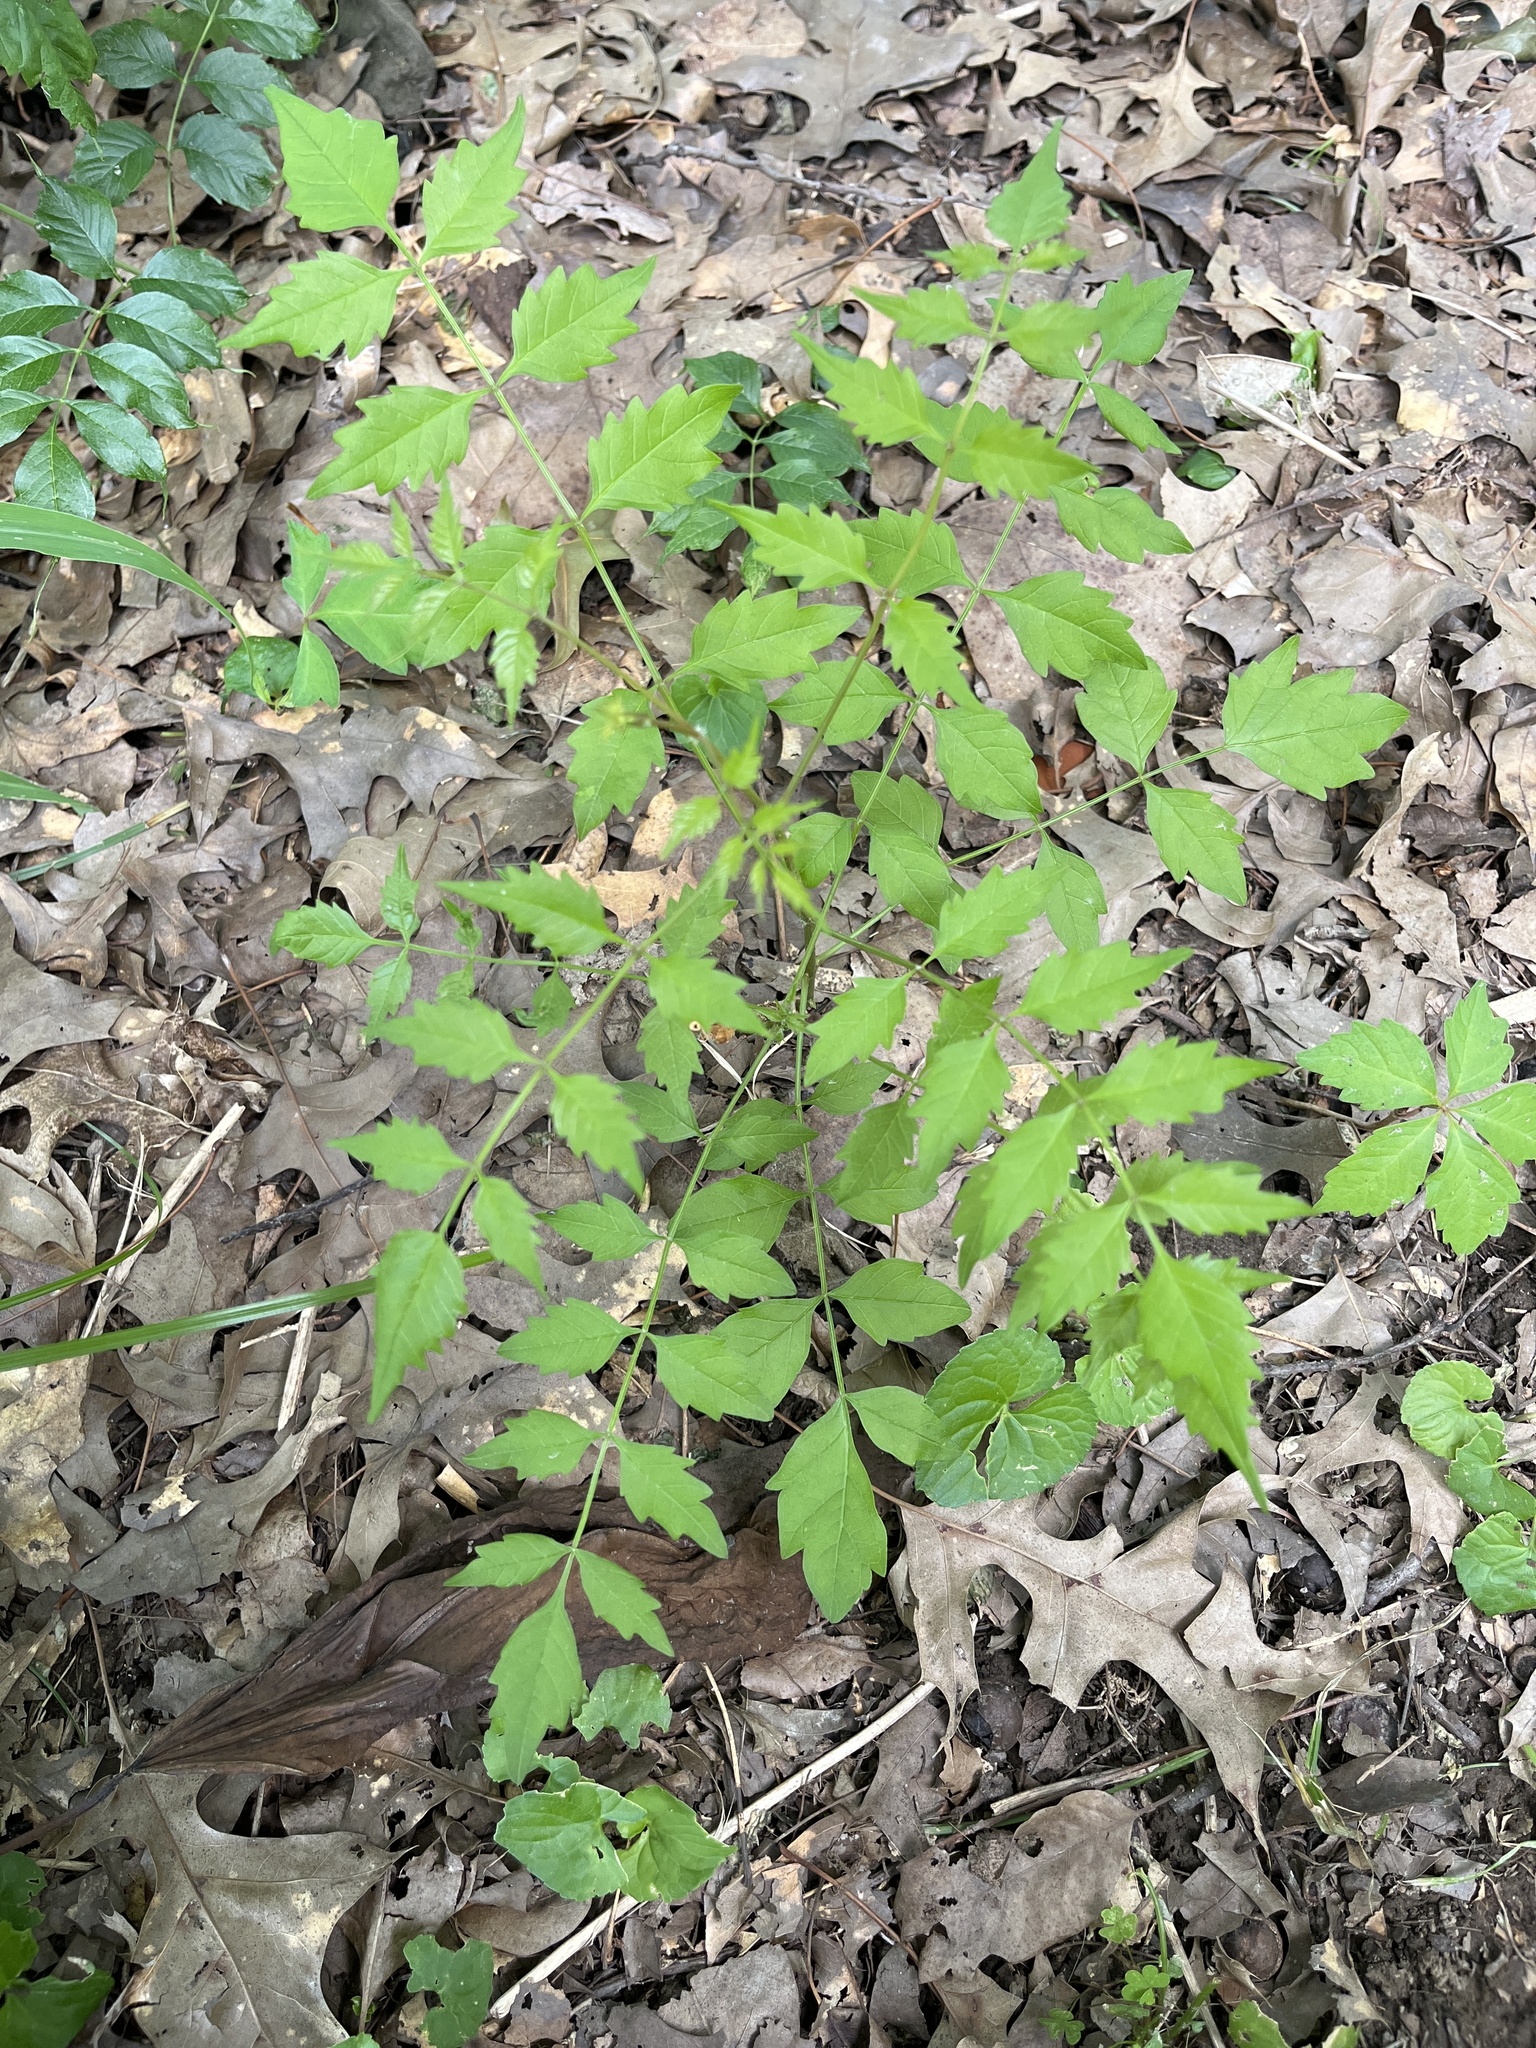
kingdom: Plantae
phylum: Tracheophyta
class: Magnoliopsida
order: Lamiales
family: Bignoniaceae
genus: Campsis
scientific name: Campsis radicans
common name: Trumpet-creeper
